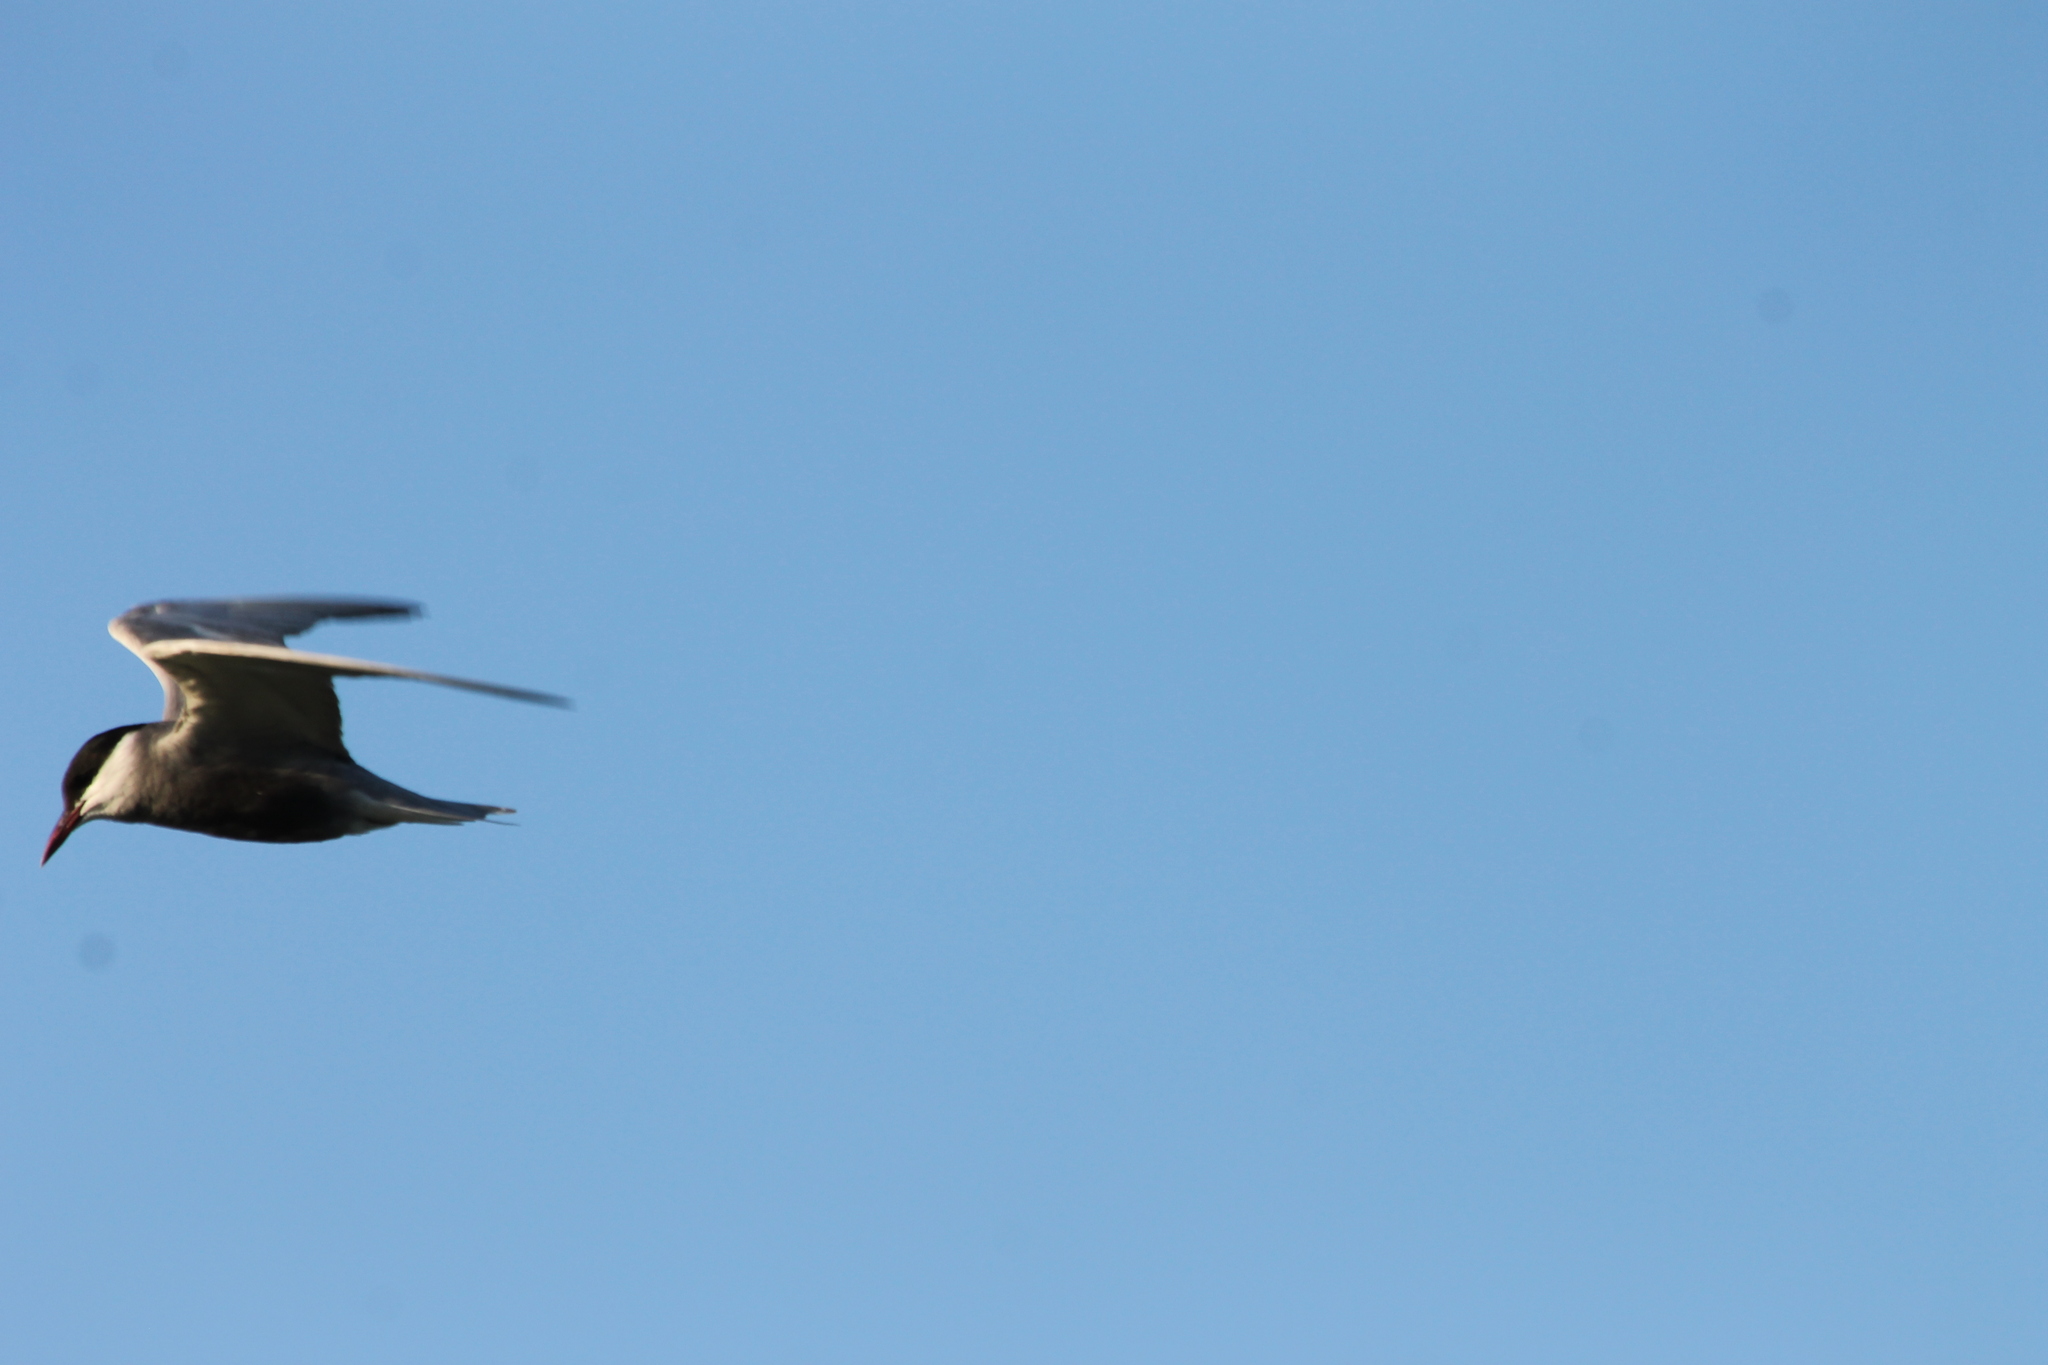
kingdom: Animalia
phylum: Chordata
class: Aves
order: Charadriiformes
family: Laridae
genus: Chlidonias
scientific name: Chlidonias hybrida
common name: Whiskered tern
